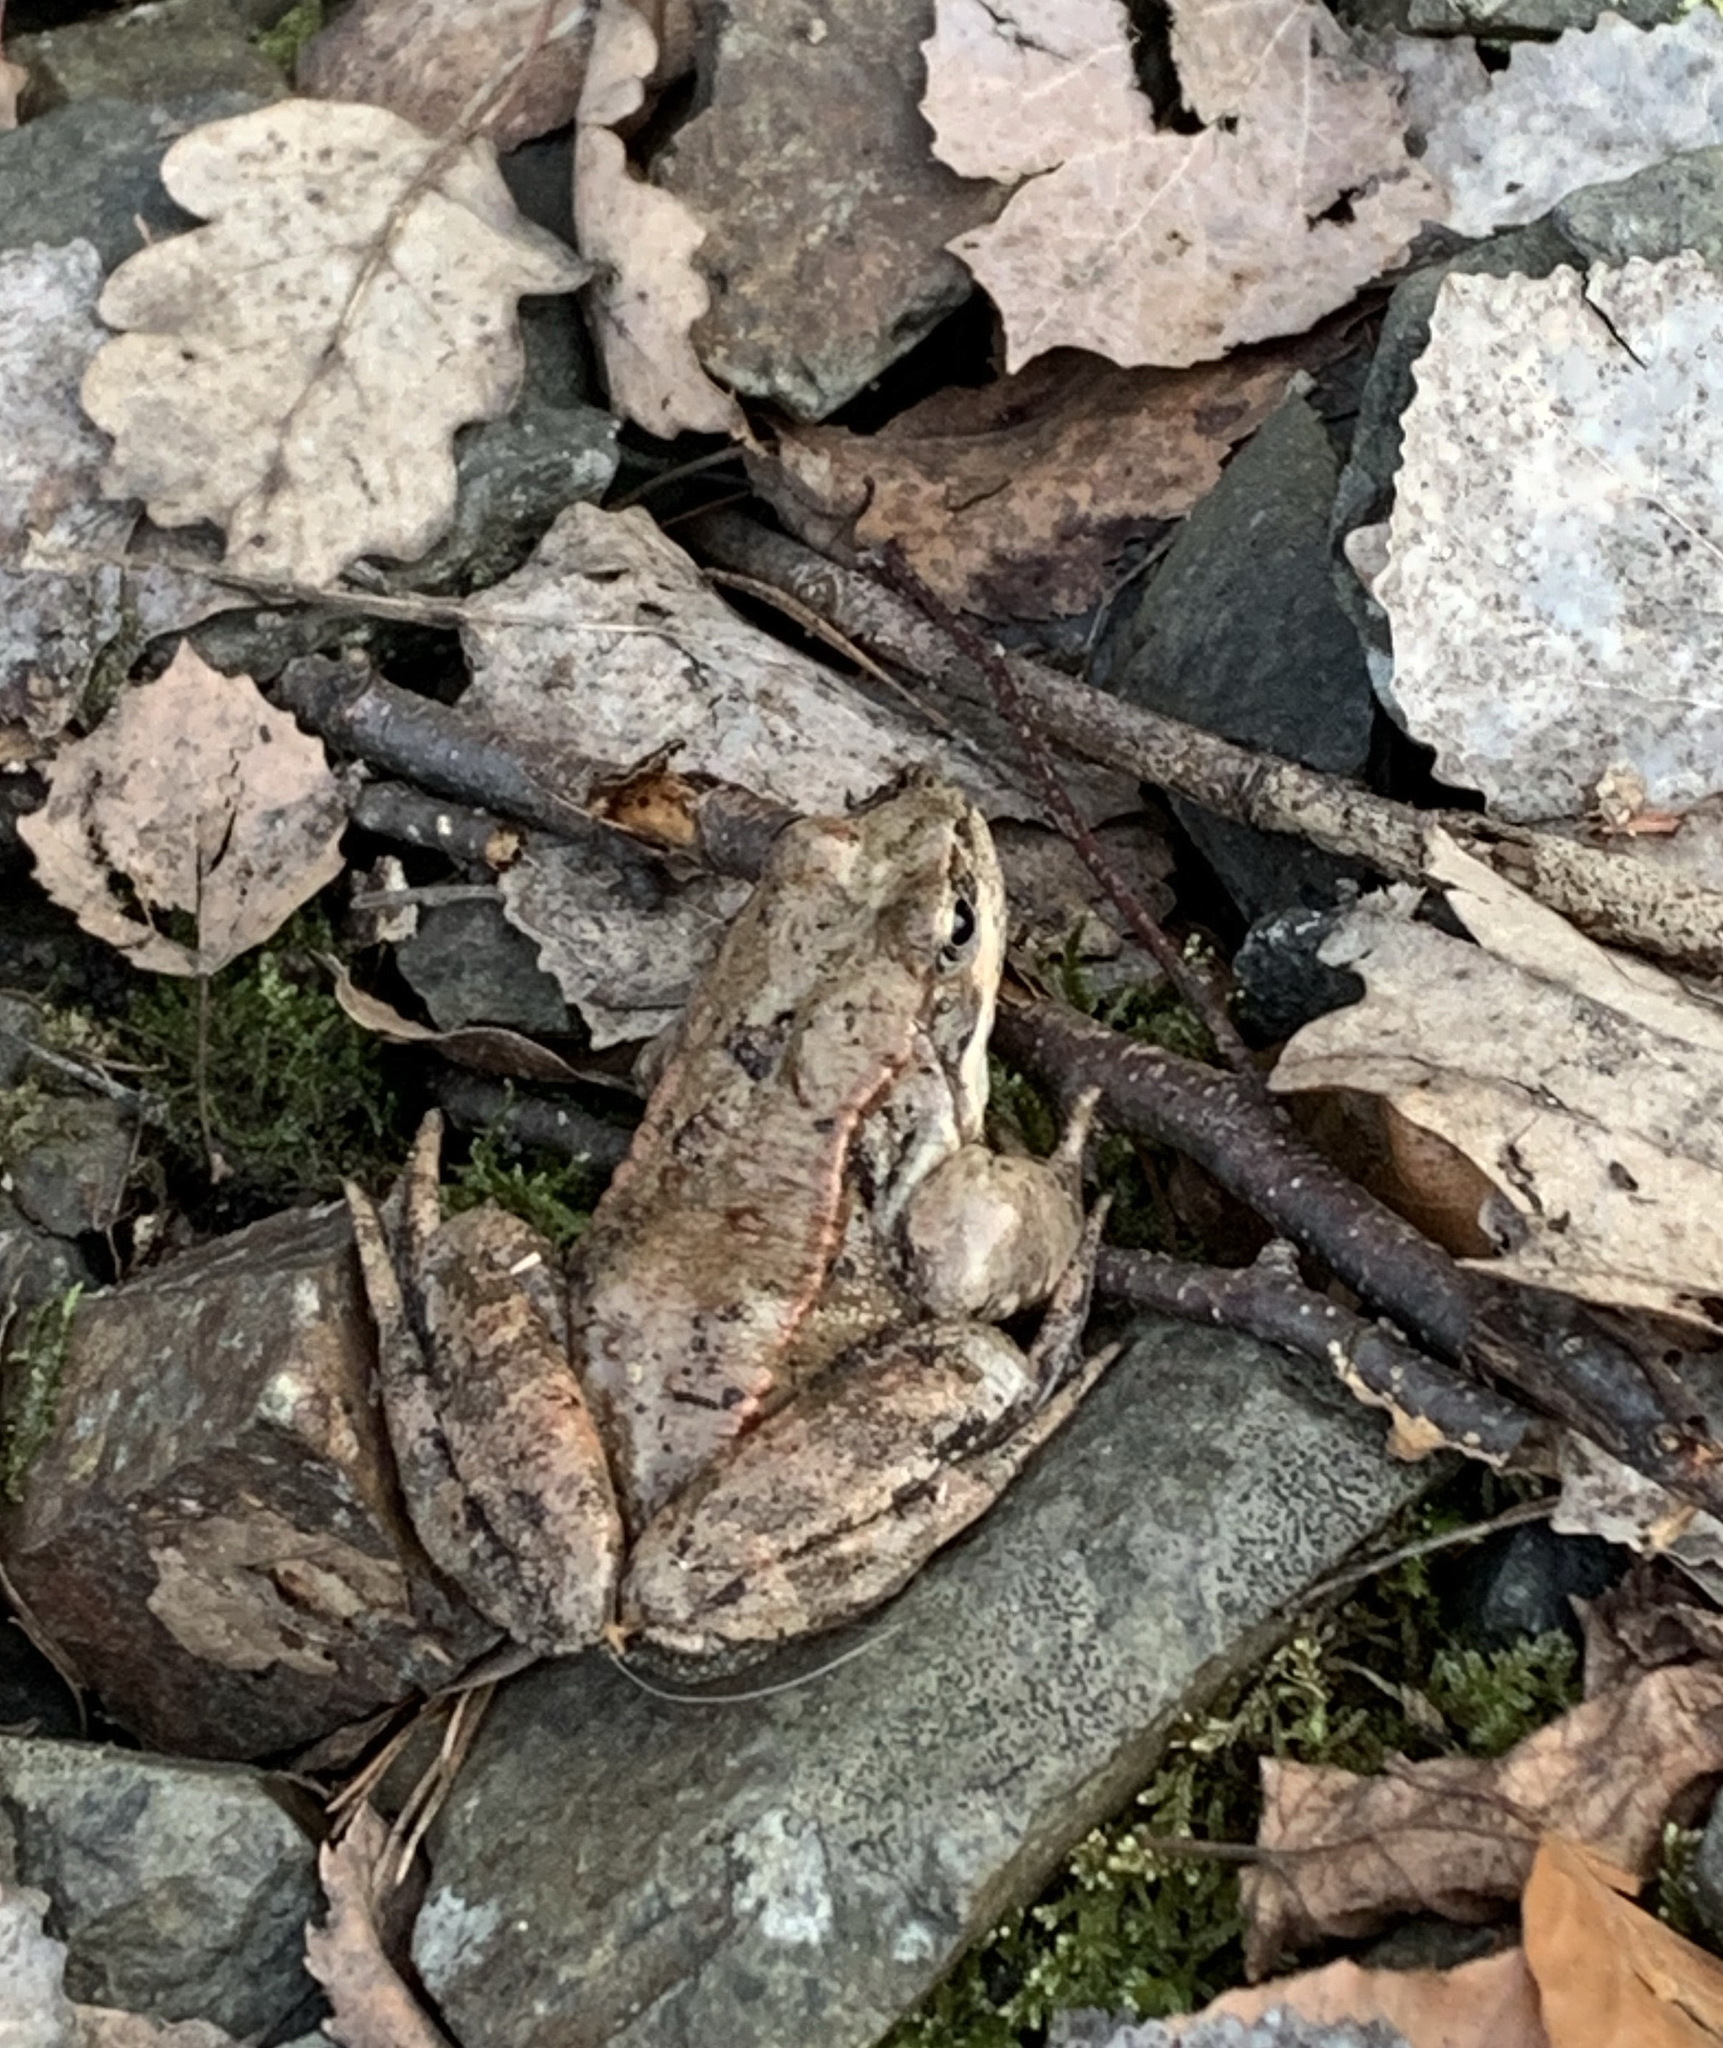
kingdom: Animalia
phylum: Chordata
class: Amphibia
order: Anura
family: Ranidae
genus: Rana
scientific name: Rana temporaria
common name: Common frog
